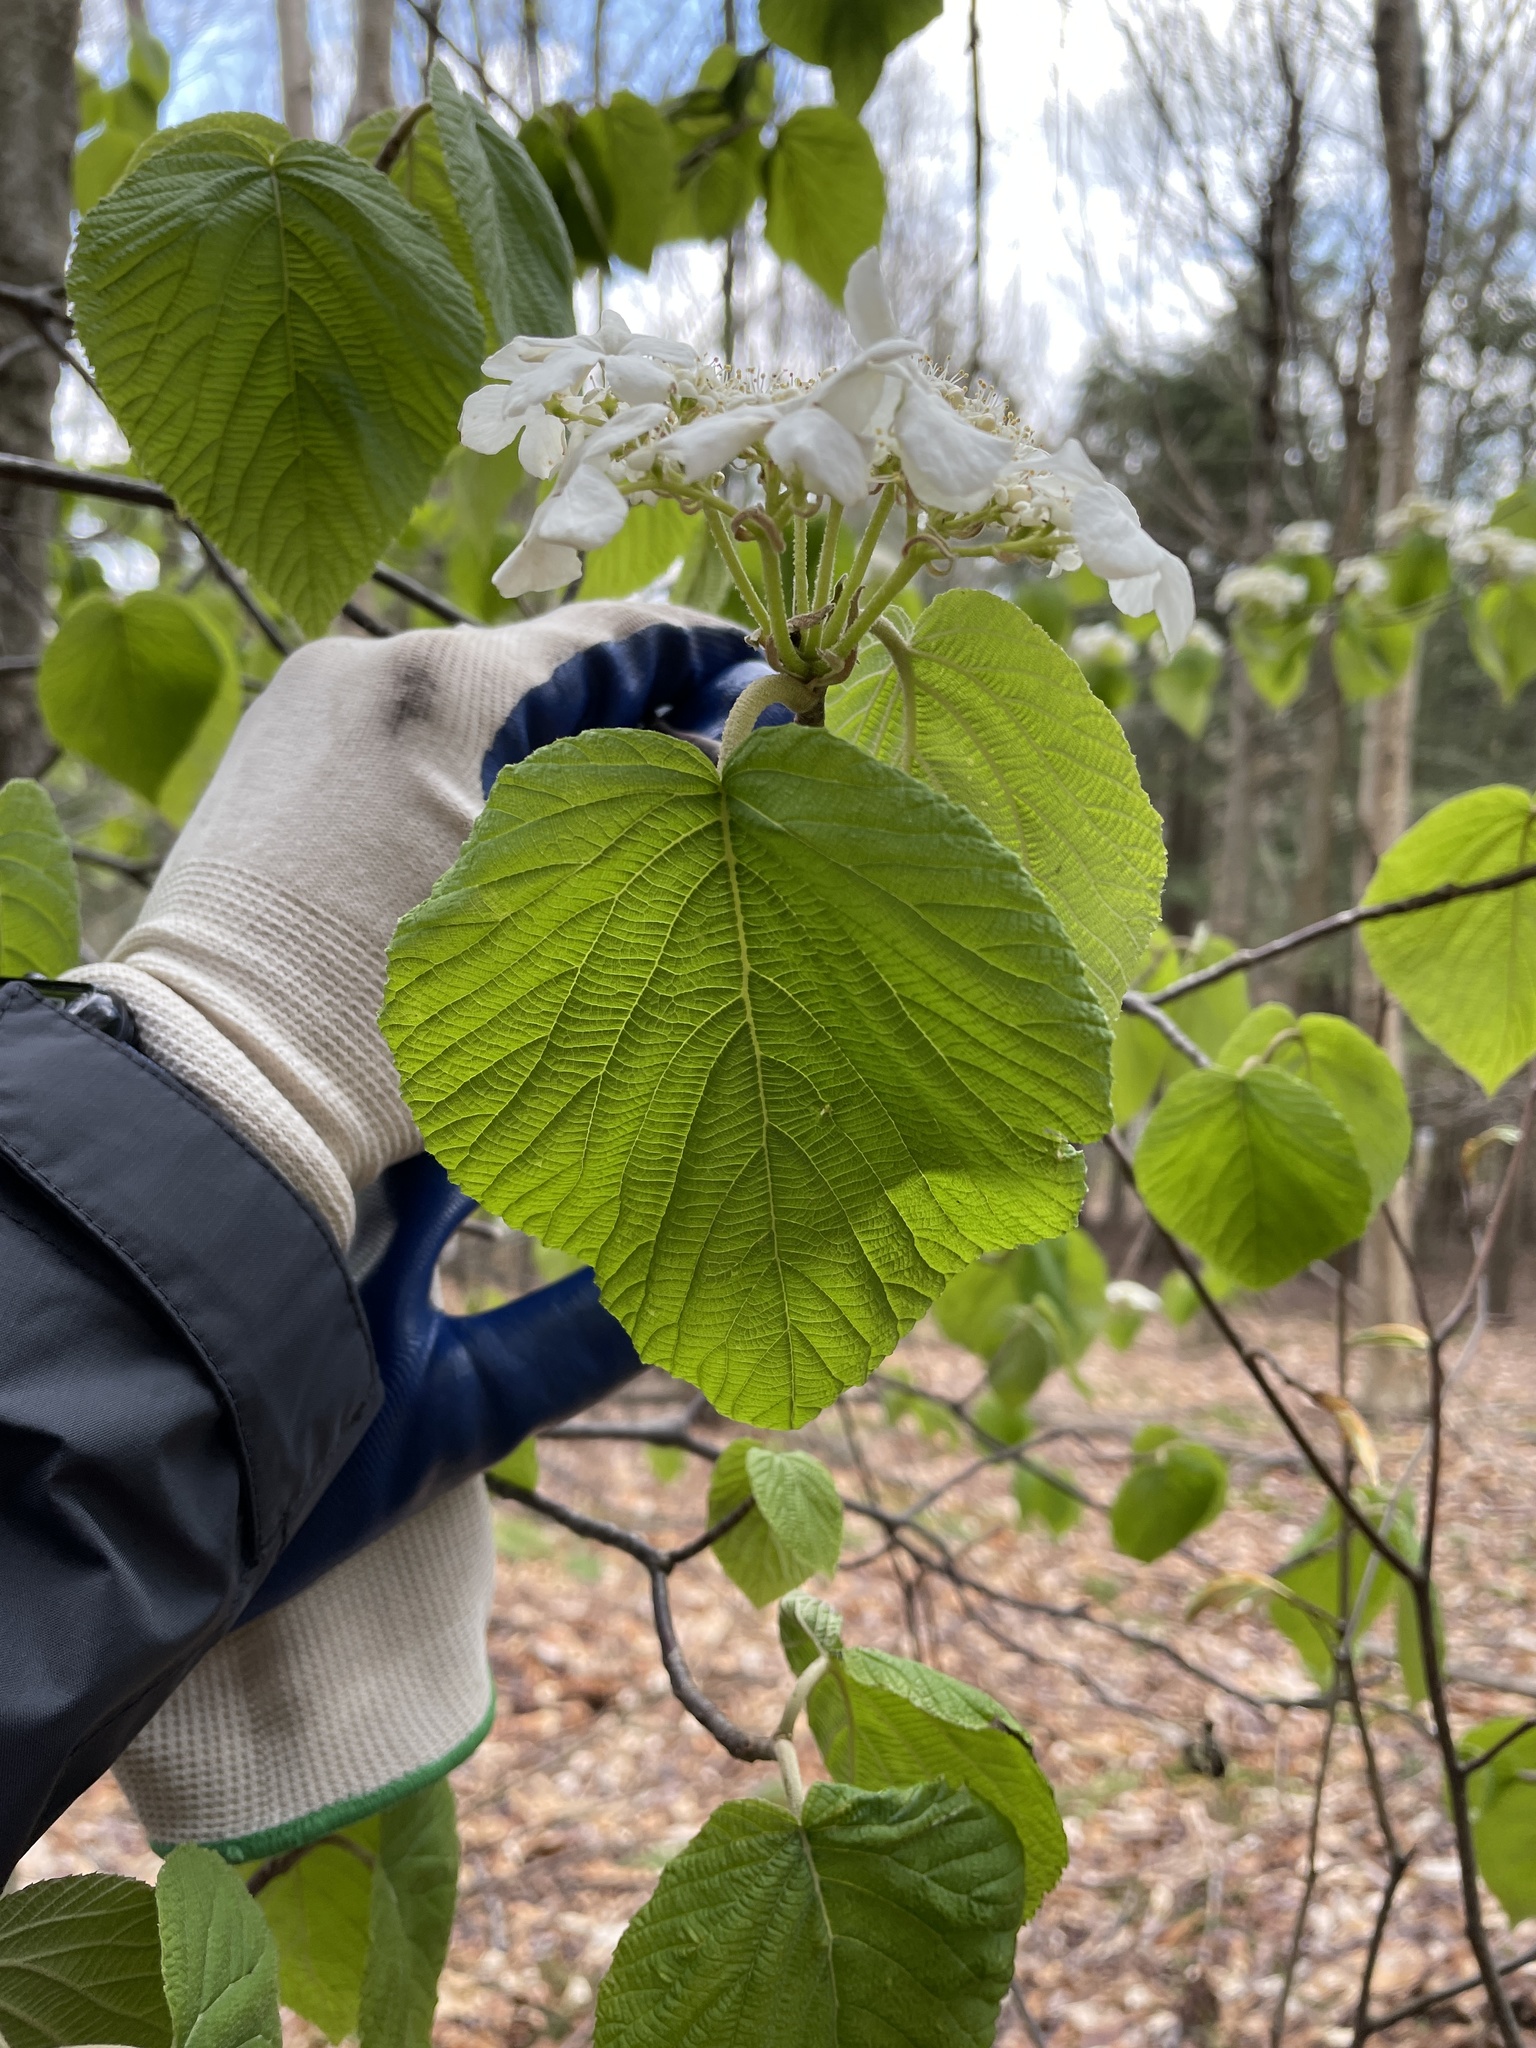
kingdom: Plantae
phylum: Tracheophyta
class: Magnoliopsida
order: Dipsacales
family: Viburnaceae
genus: Viburnum
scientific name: Viburnum lantanoides
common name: Hobblebush
